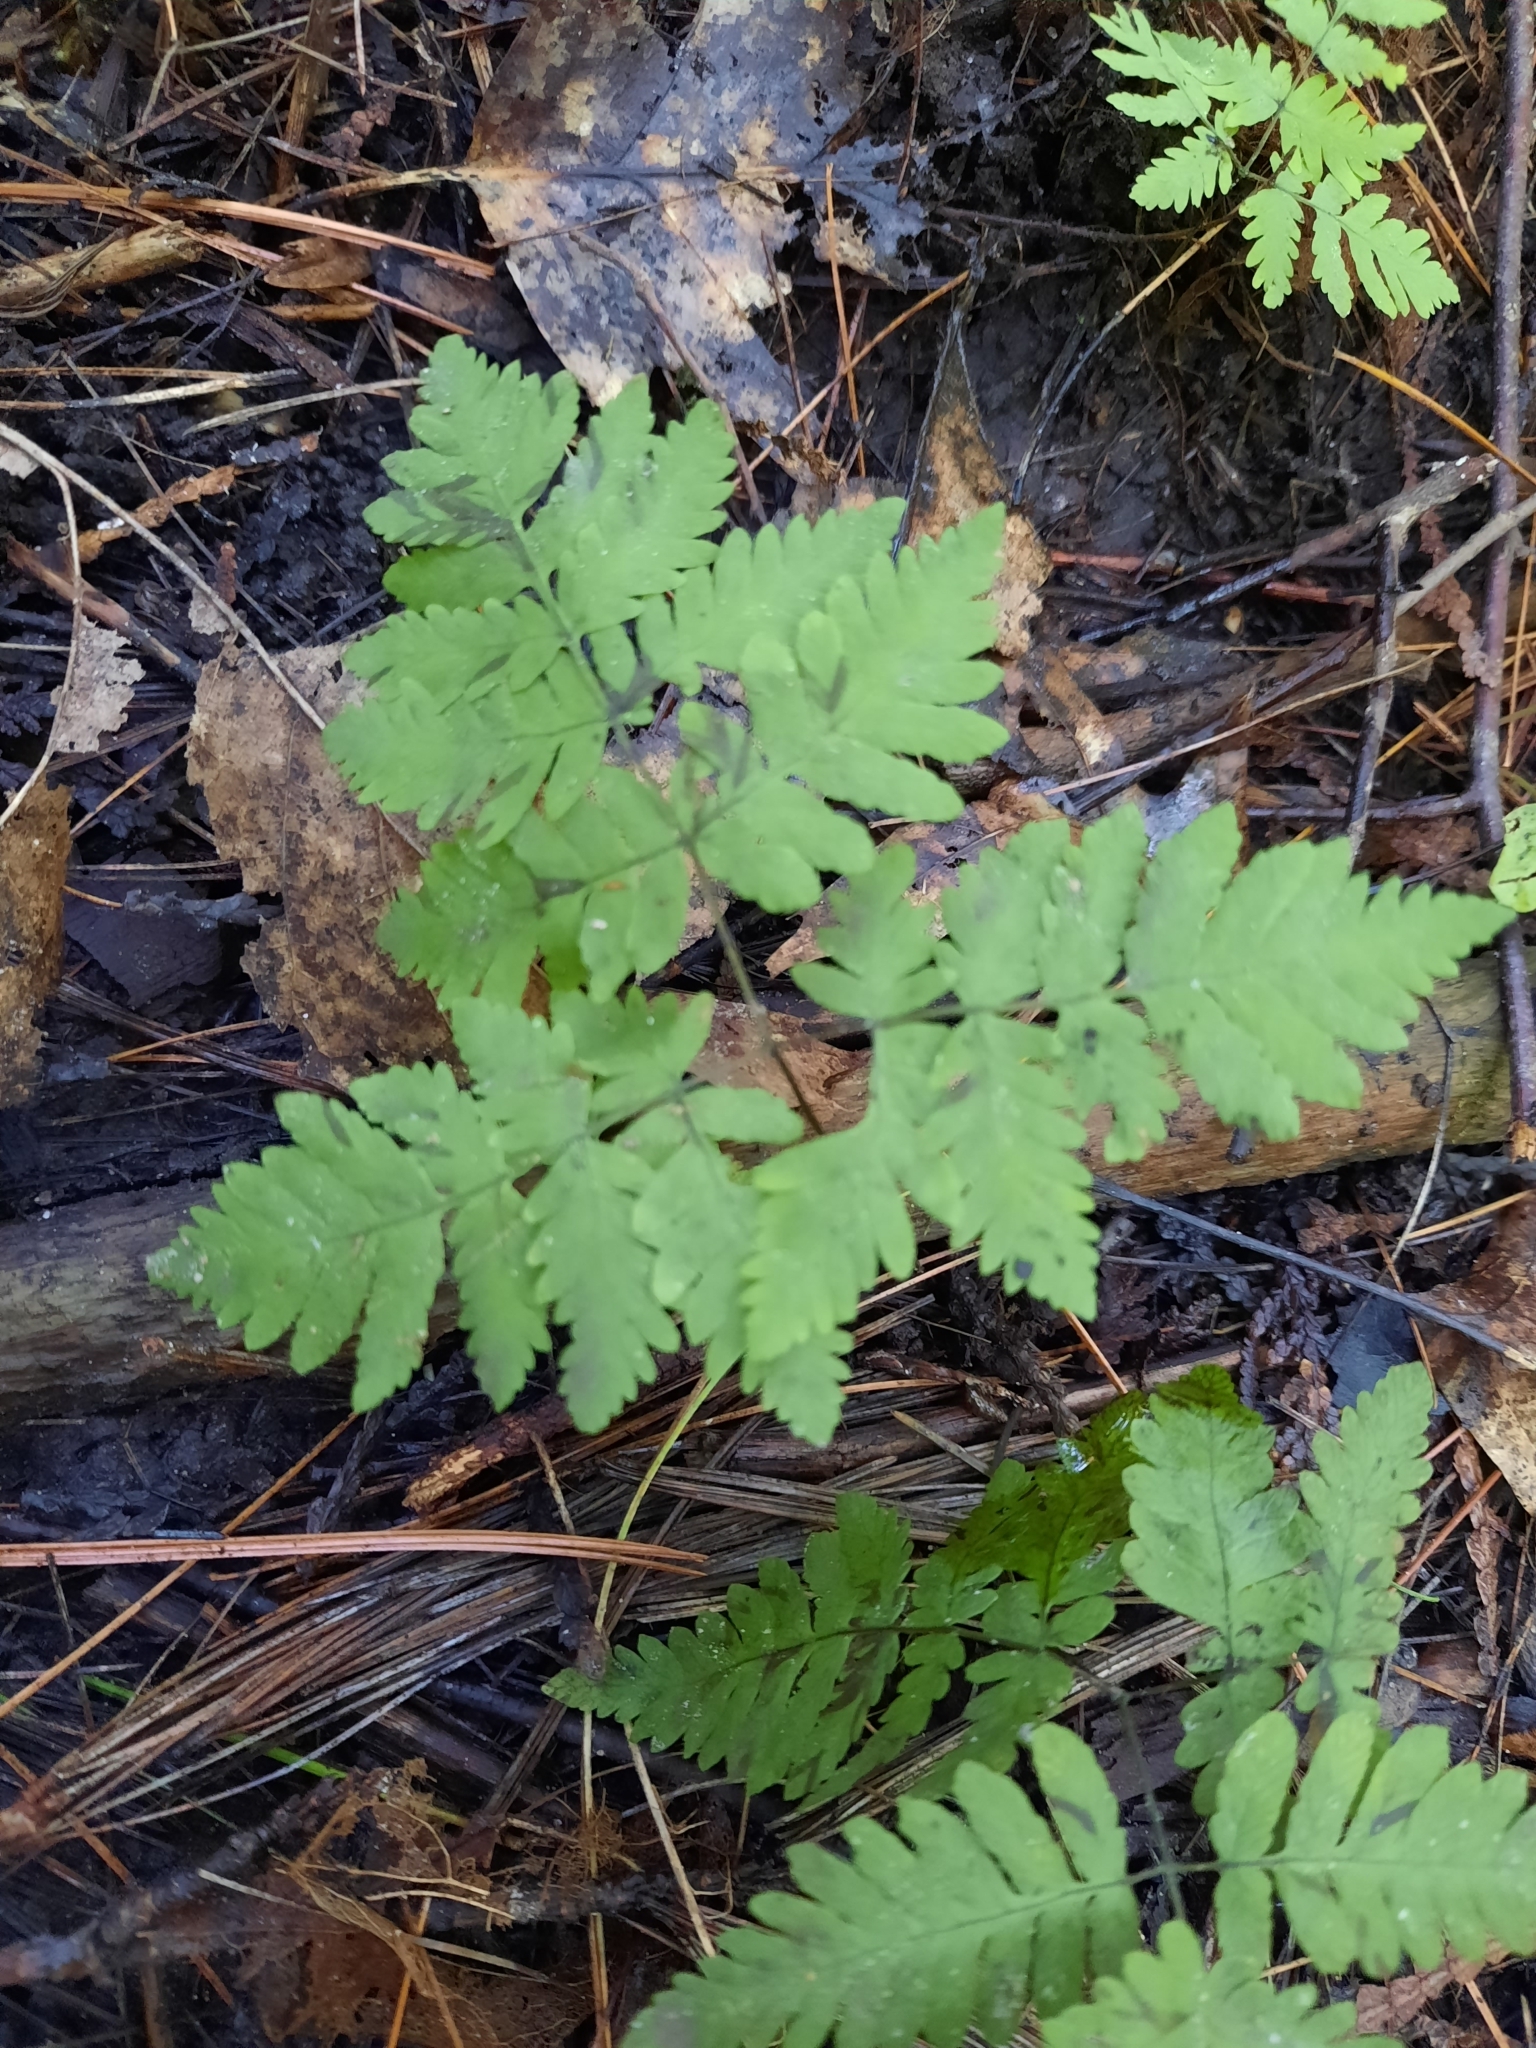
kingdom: Plantae
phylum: Tracheophyta
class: Polypodiopsida
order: Polypodiales
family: Cystopteridaceae
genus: Gymnocarpium
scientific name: Gymnocarpium dryopteris
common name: Oak fern
